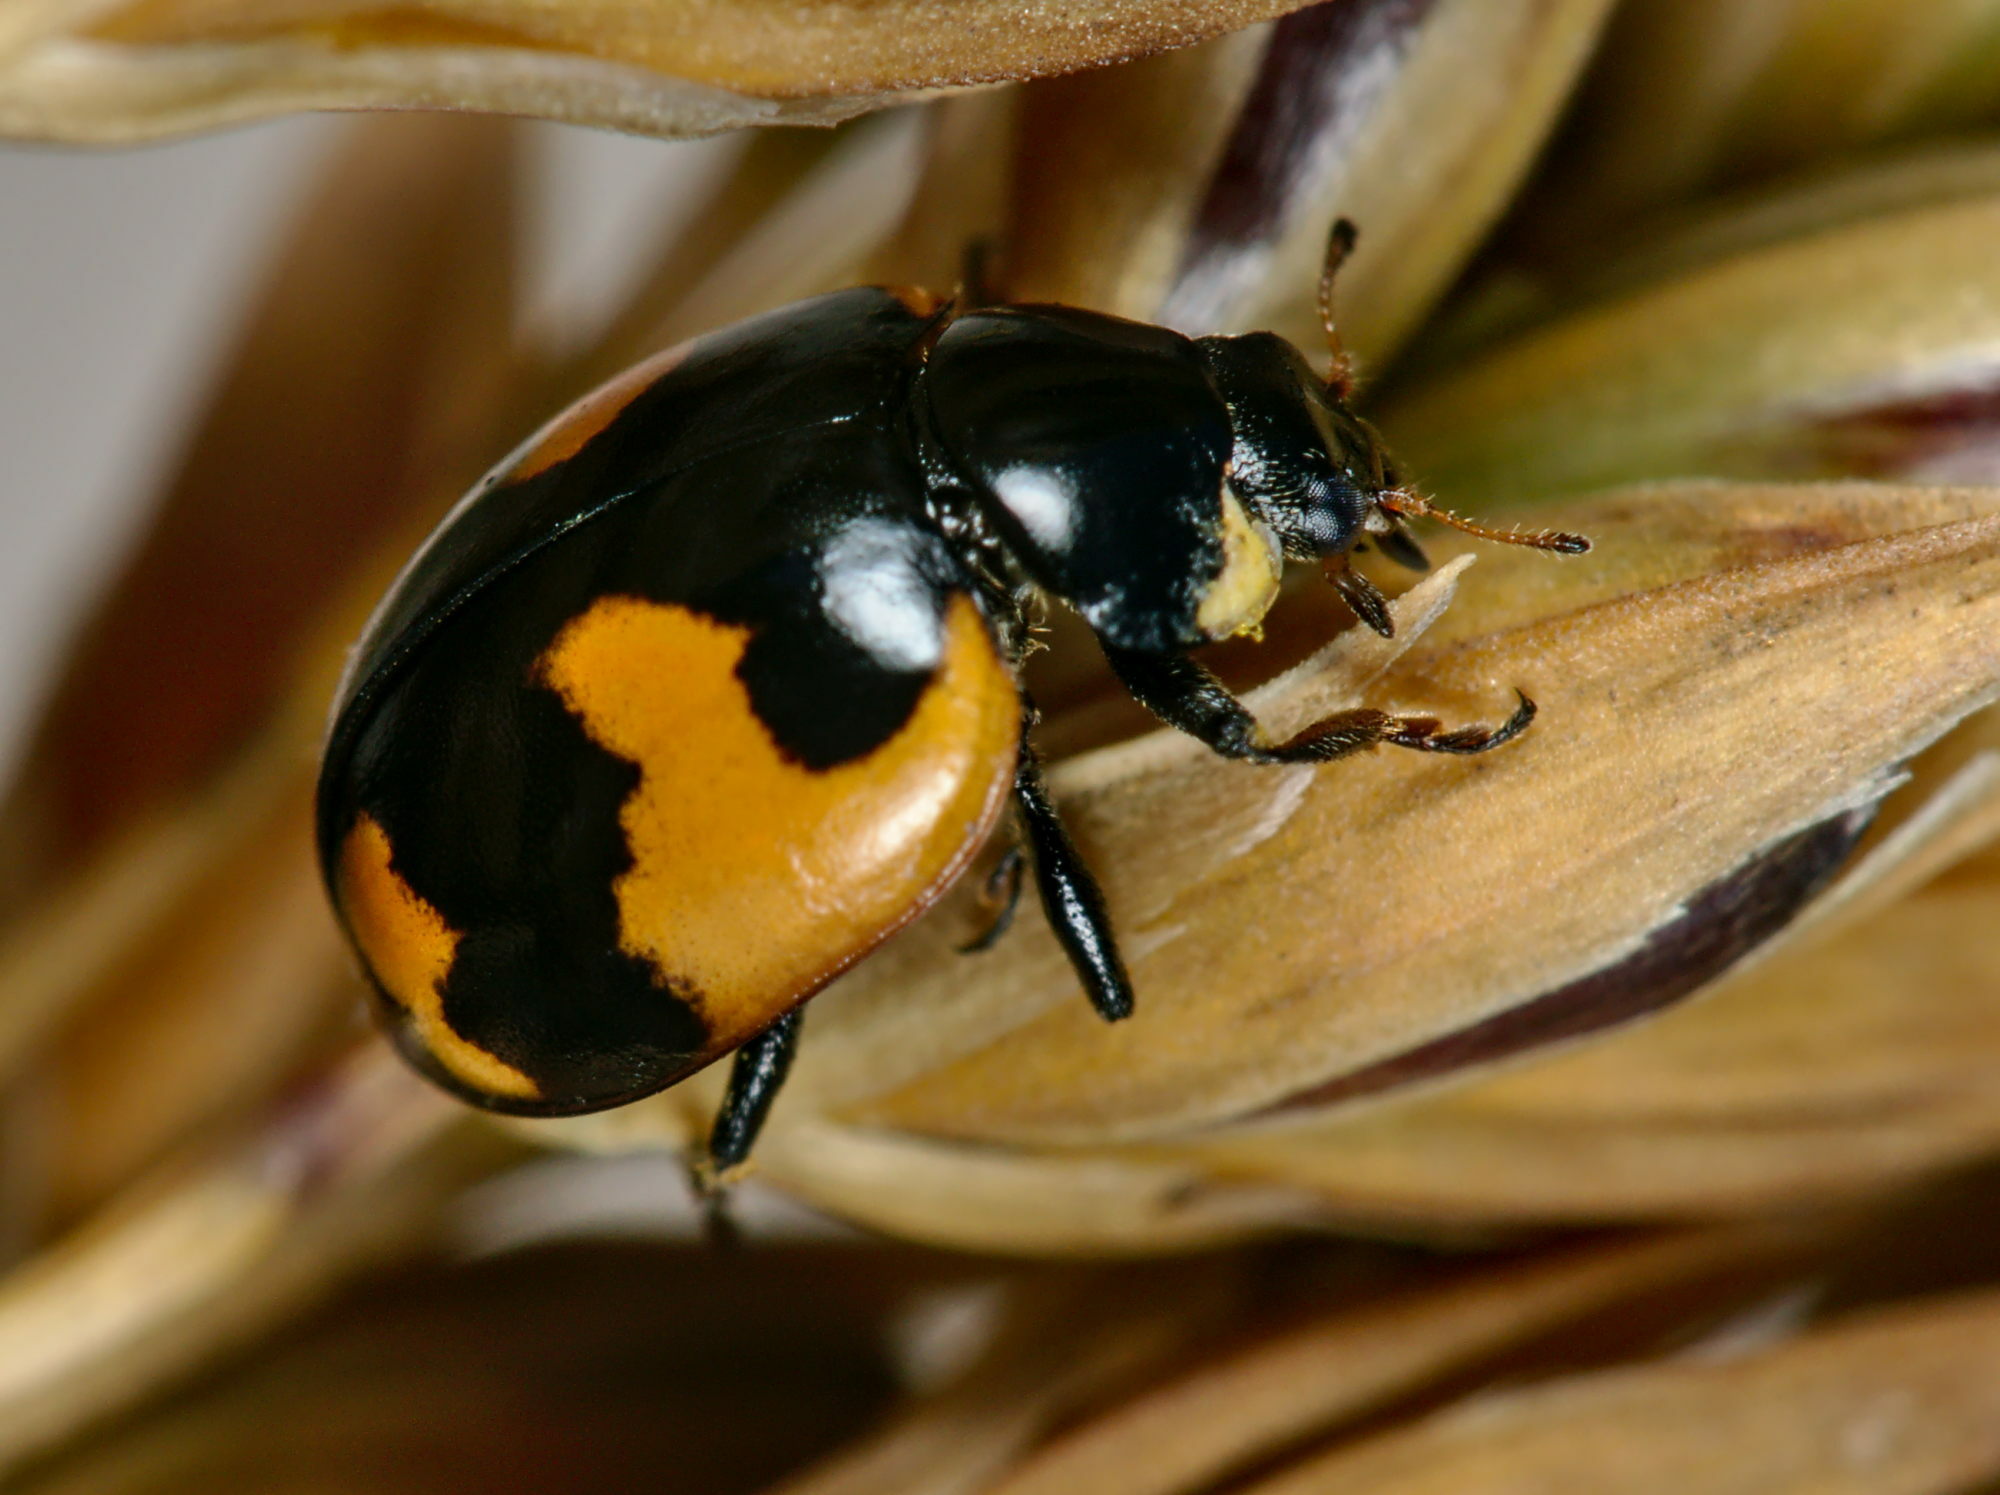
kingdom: Animalia
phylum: Arthropoda
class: Insecta
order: Coleoptera
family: Coccinellidae
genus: Ceratomegilla
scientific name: Ceratomegilla alpina
